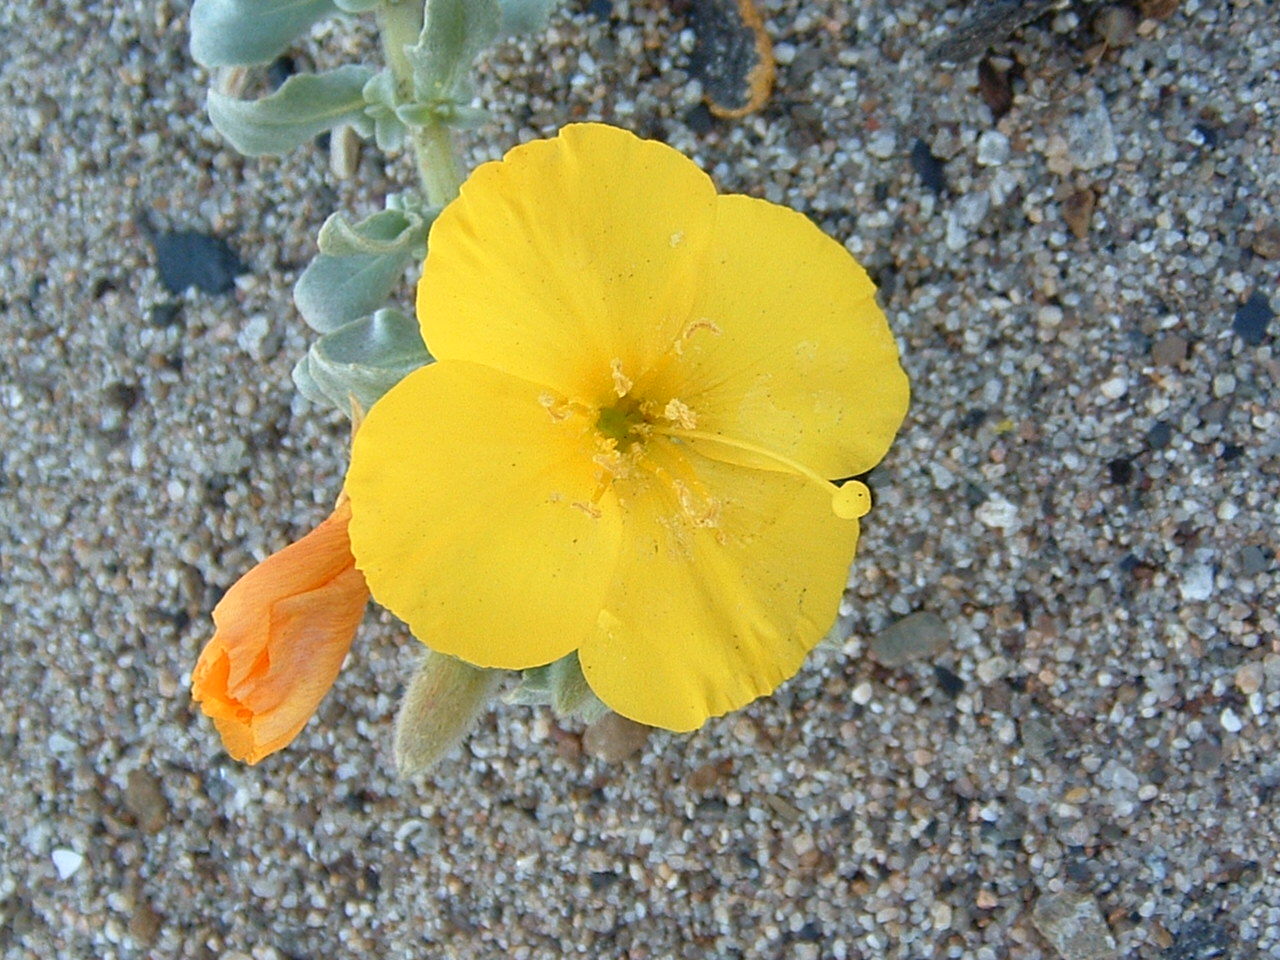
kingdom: Plantae
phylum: Tracheophyta
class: Magnoliopsida
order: Myrtales
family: Onagraceae
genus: Camissoniopsis
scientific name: Camissoniopsis cheiranthifolia
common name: Beach suncup
